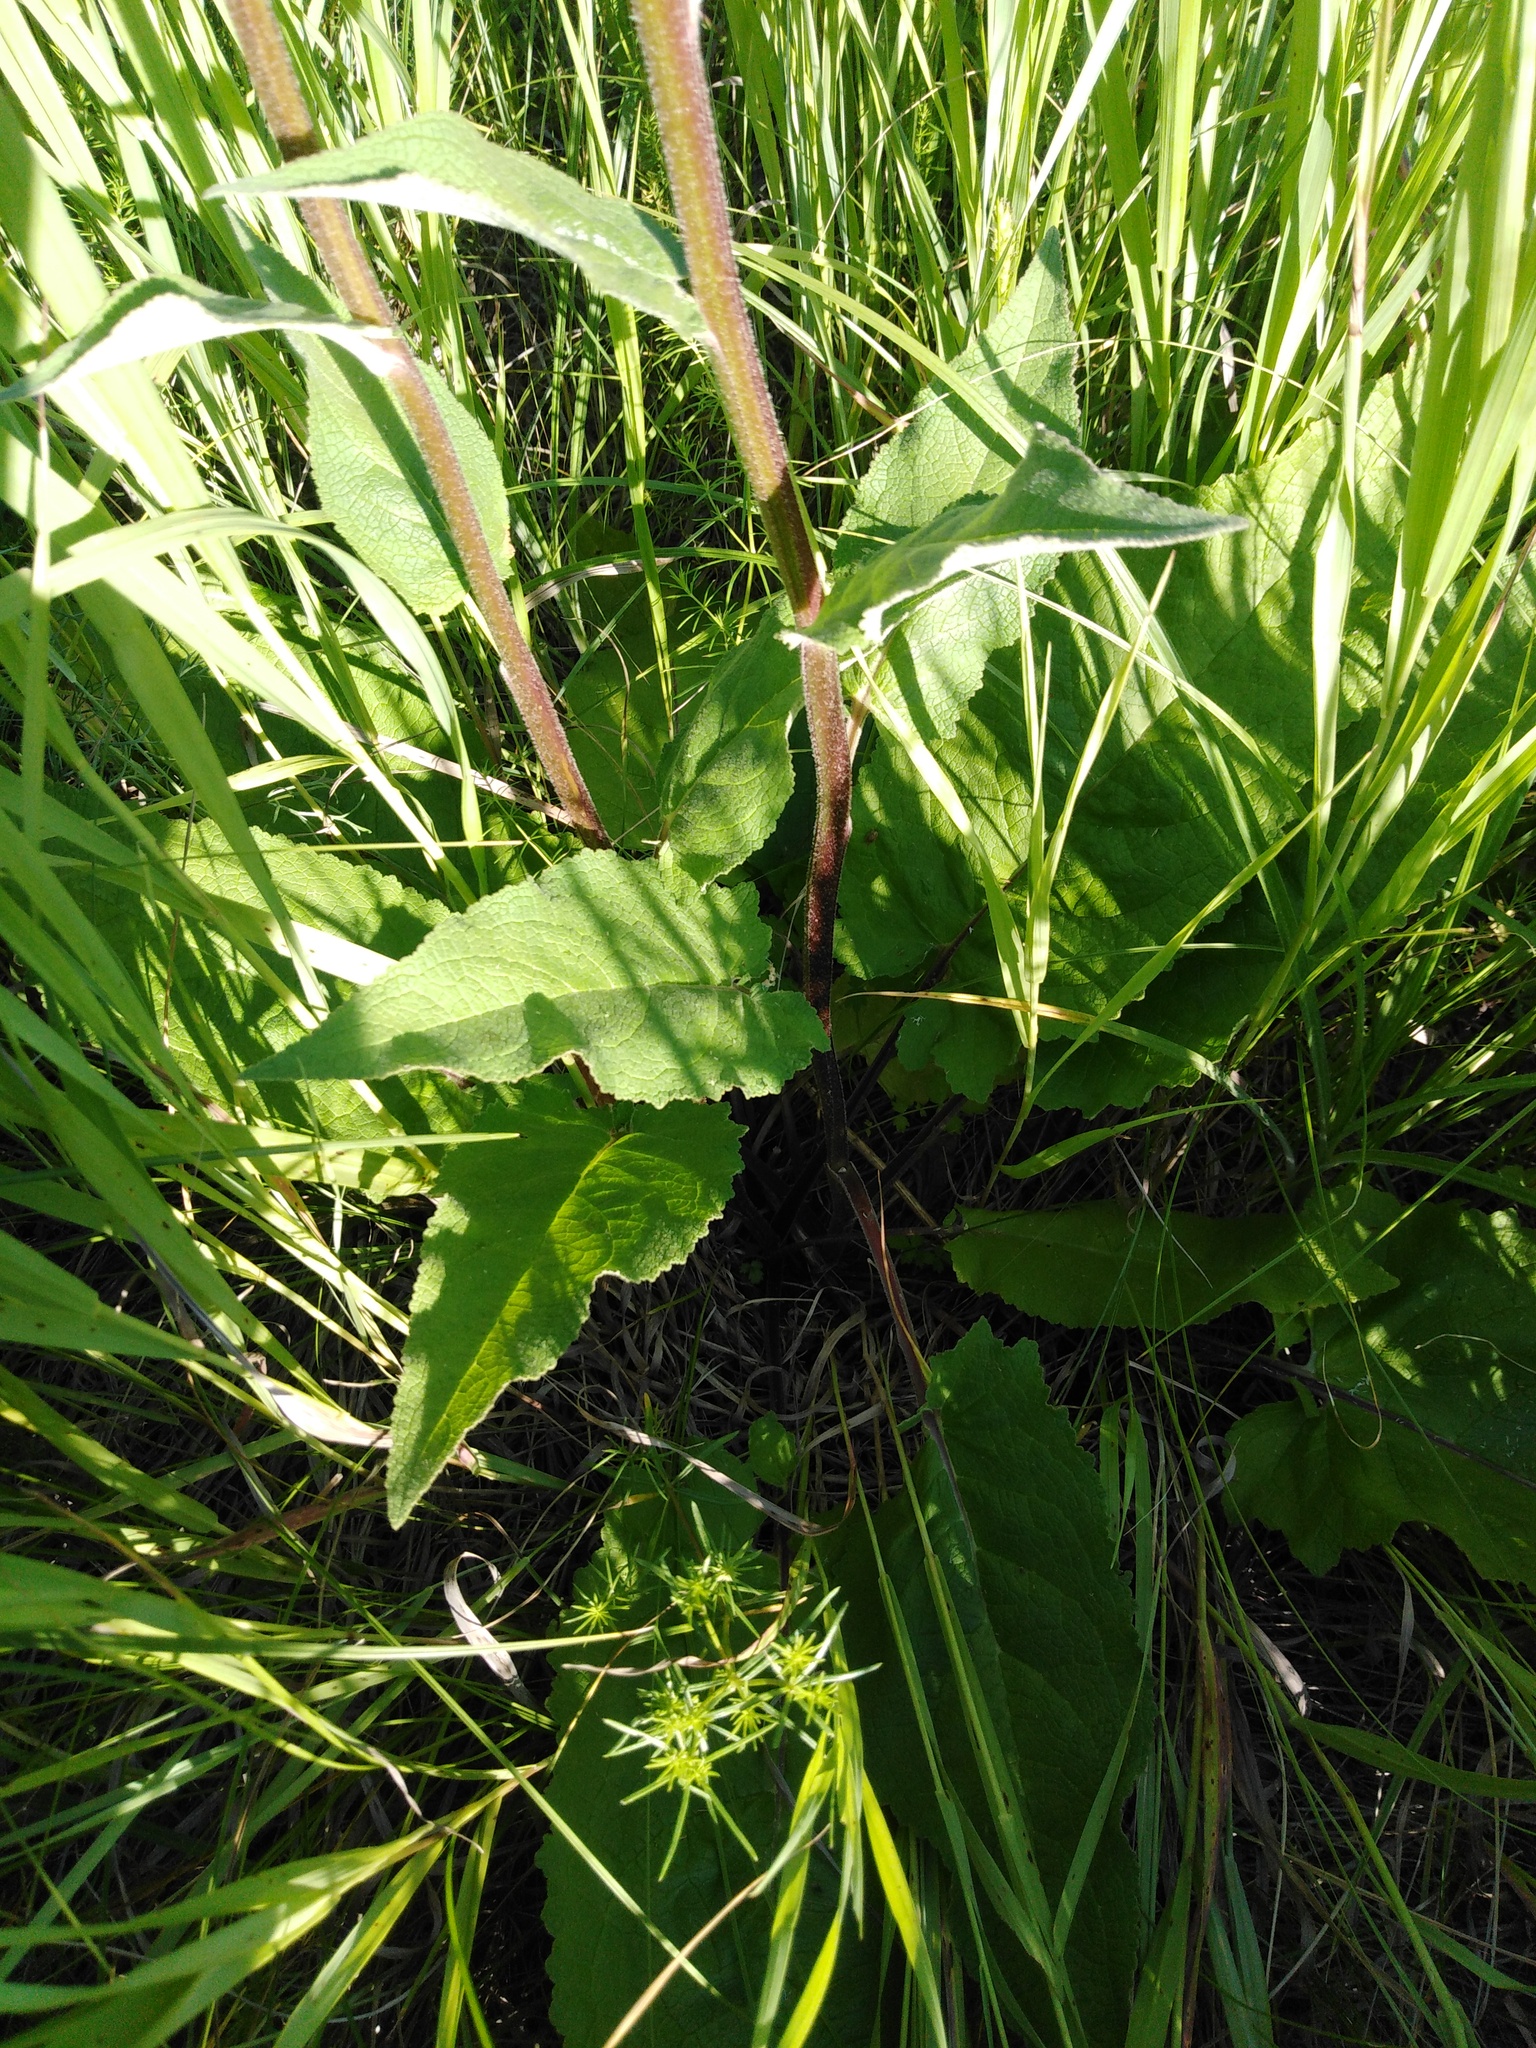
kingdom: Plantae
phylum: Tracheophyta
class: Magnoliopsida
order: Lamiales
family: Scrophulariaceae
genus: Verbascum
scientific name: Verbascum nigrum
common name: Dark mullein
